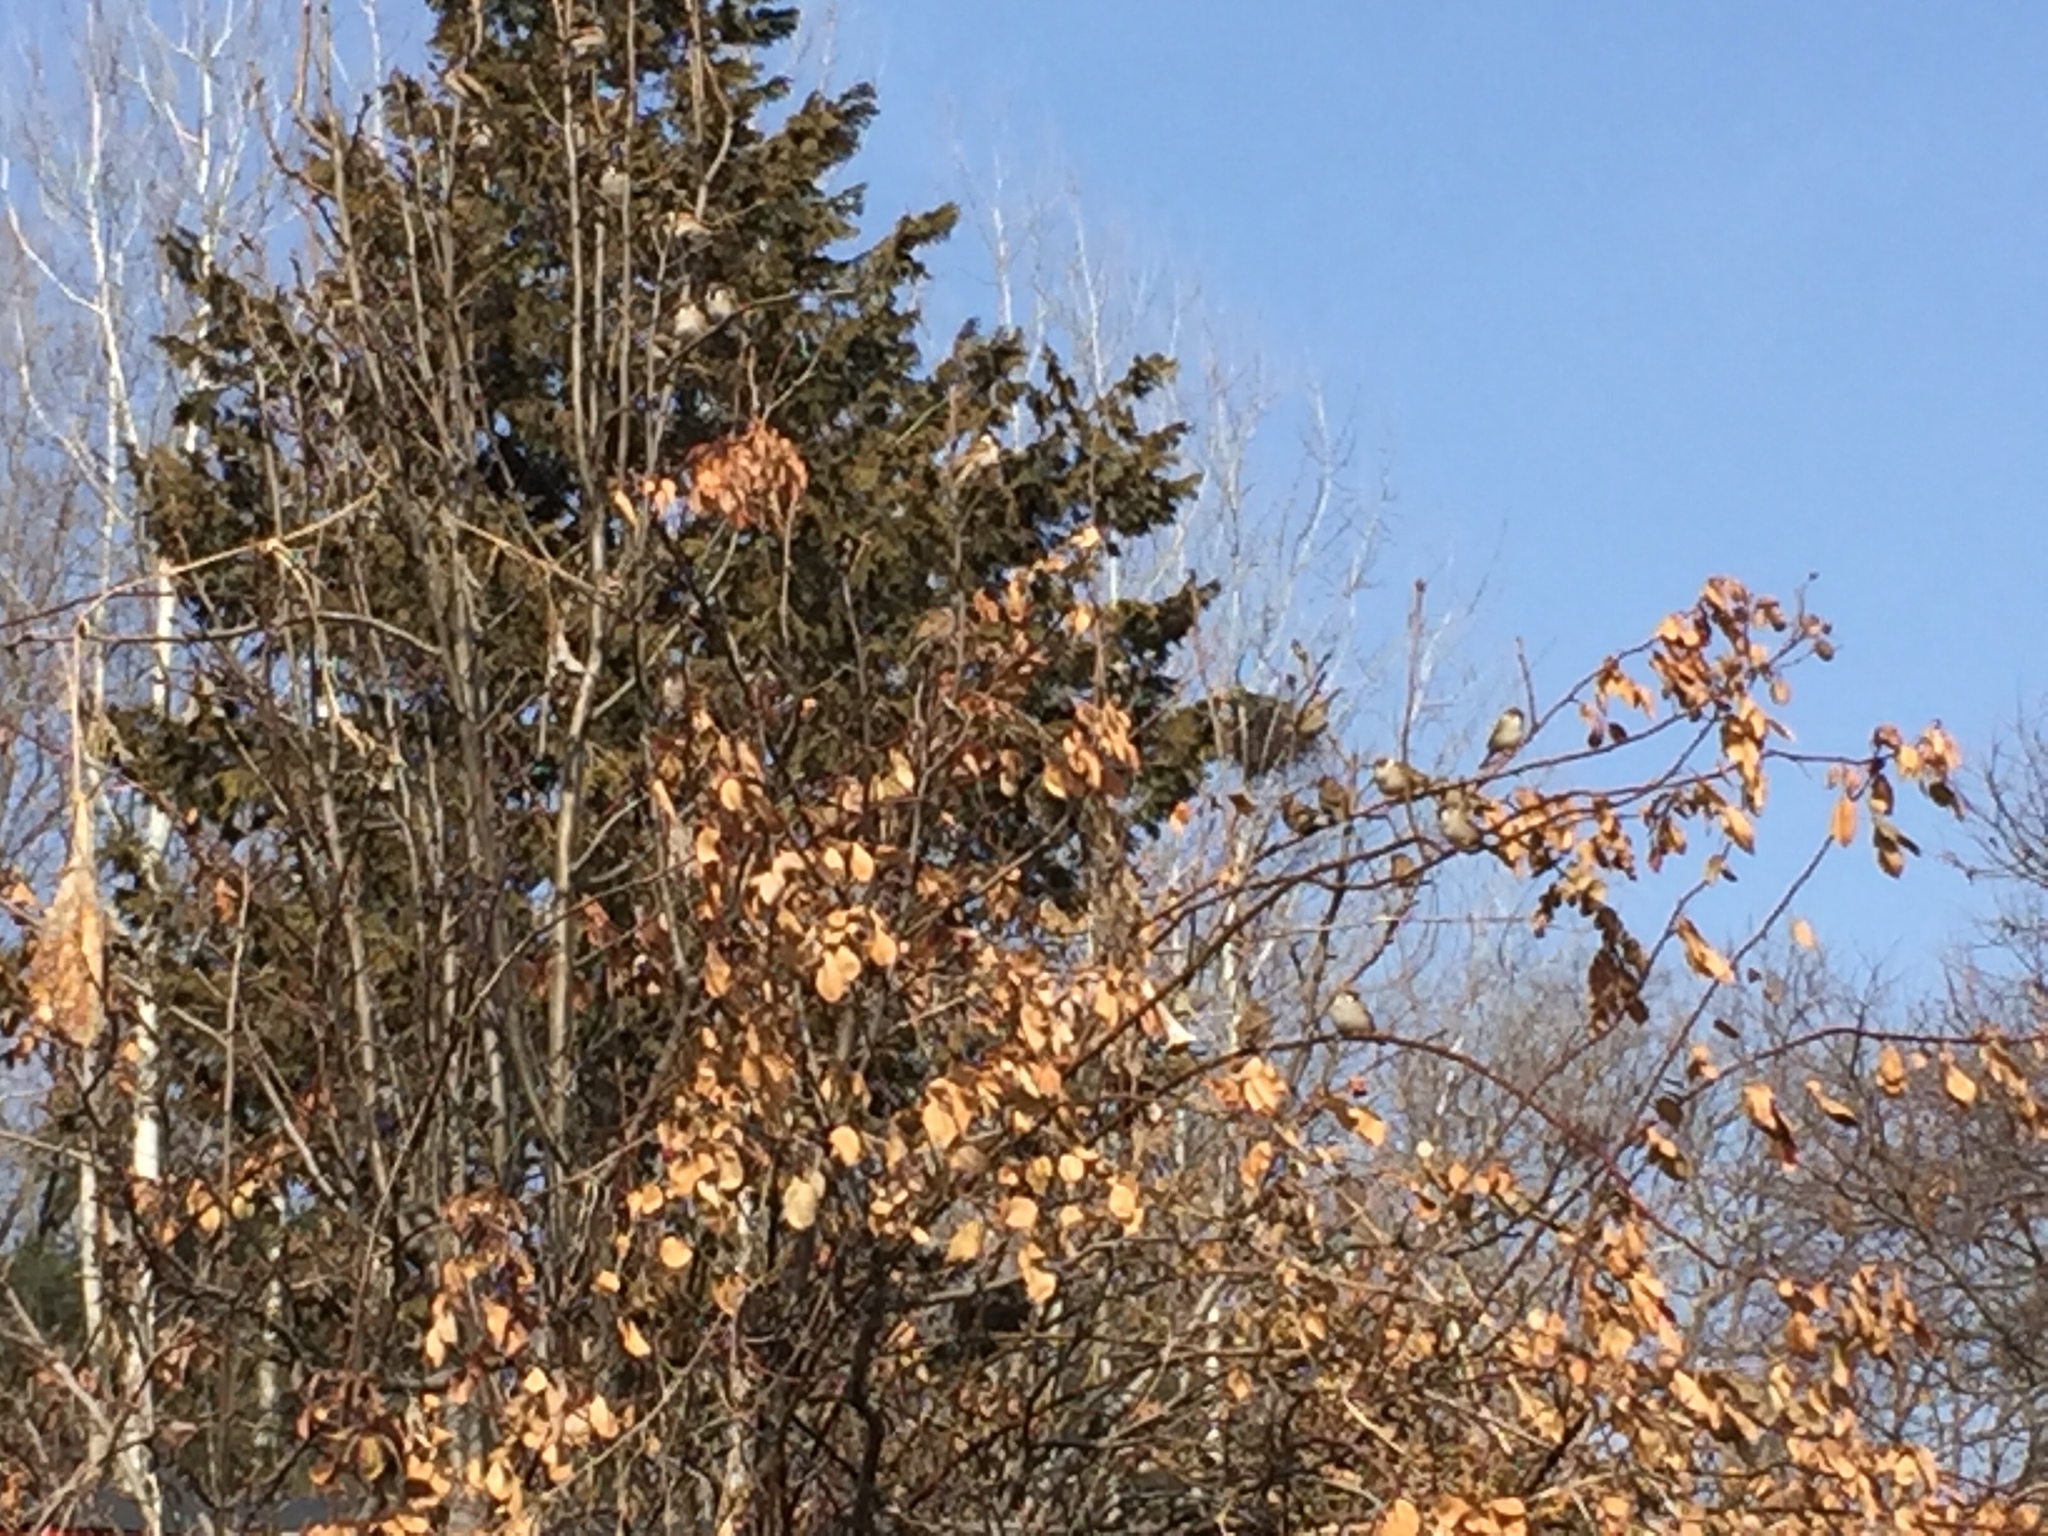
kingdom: Animalia
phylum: Chordata
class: Aves
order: Passeriformes
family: Passeridae
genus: Passer
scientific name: Passer montanus
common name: Eurasian tree sparrow
